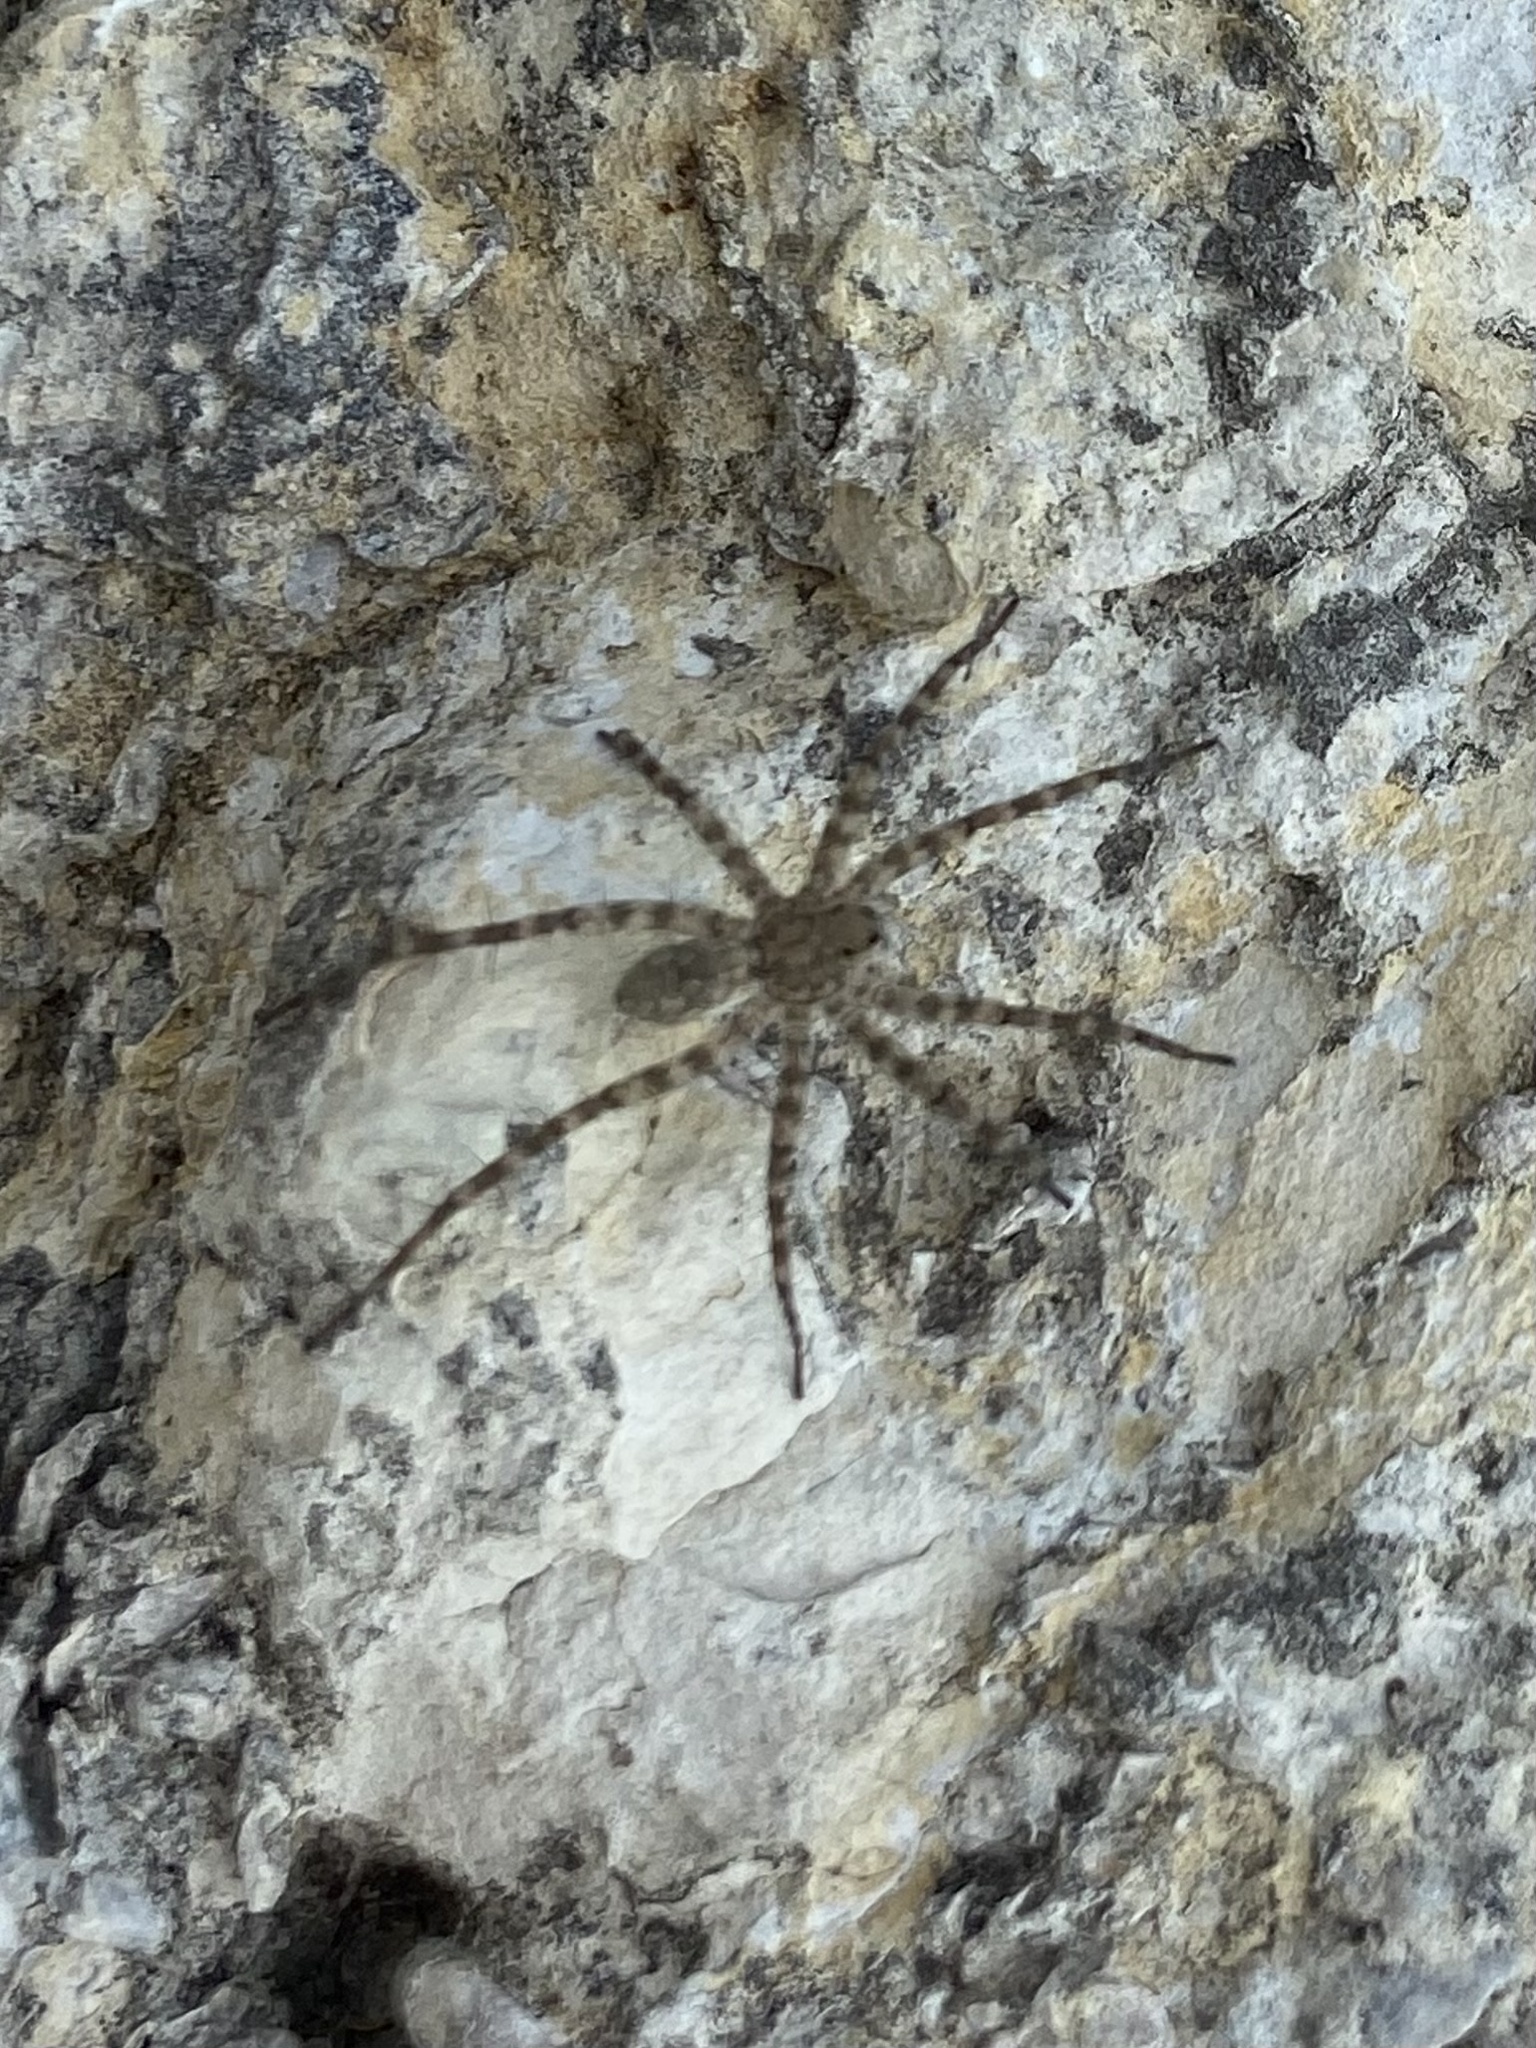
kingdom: Animalia
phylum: Arthropoda
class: Arachnida
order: Araneae
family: Lycosidae
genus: Pardosa
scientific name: Pardosa mercurialis
